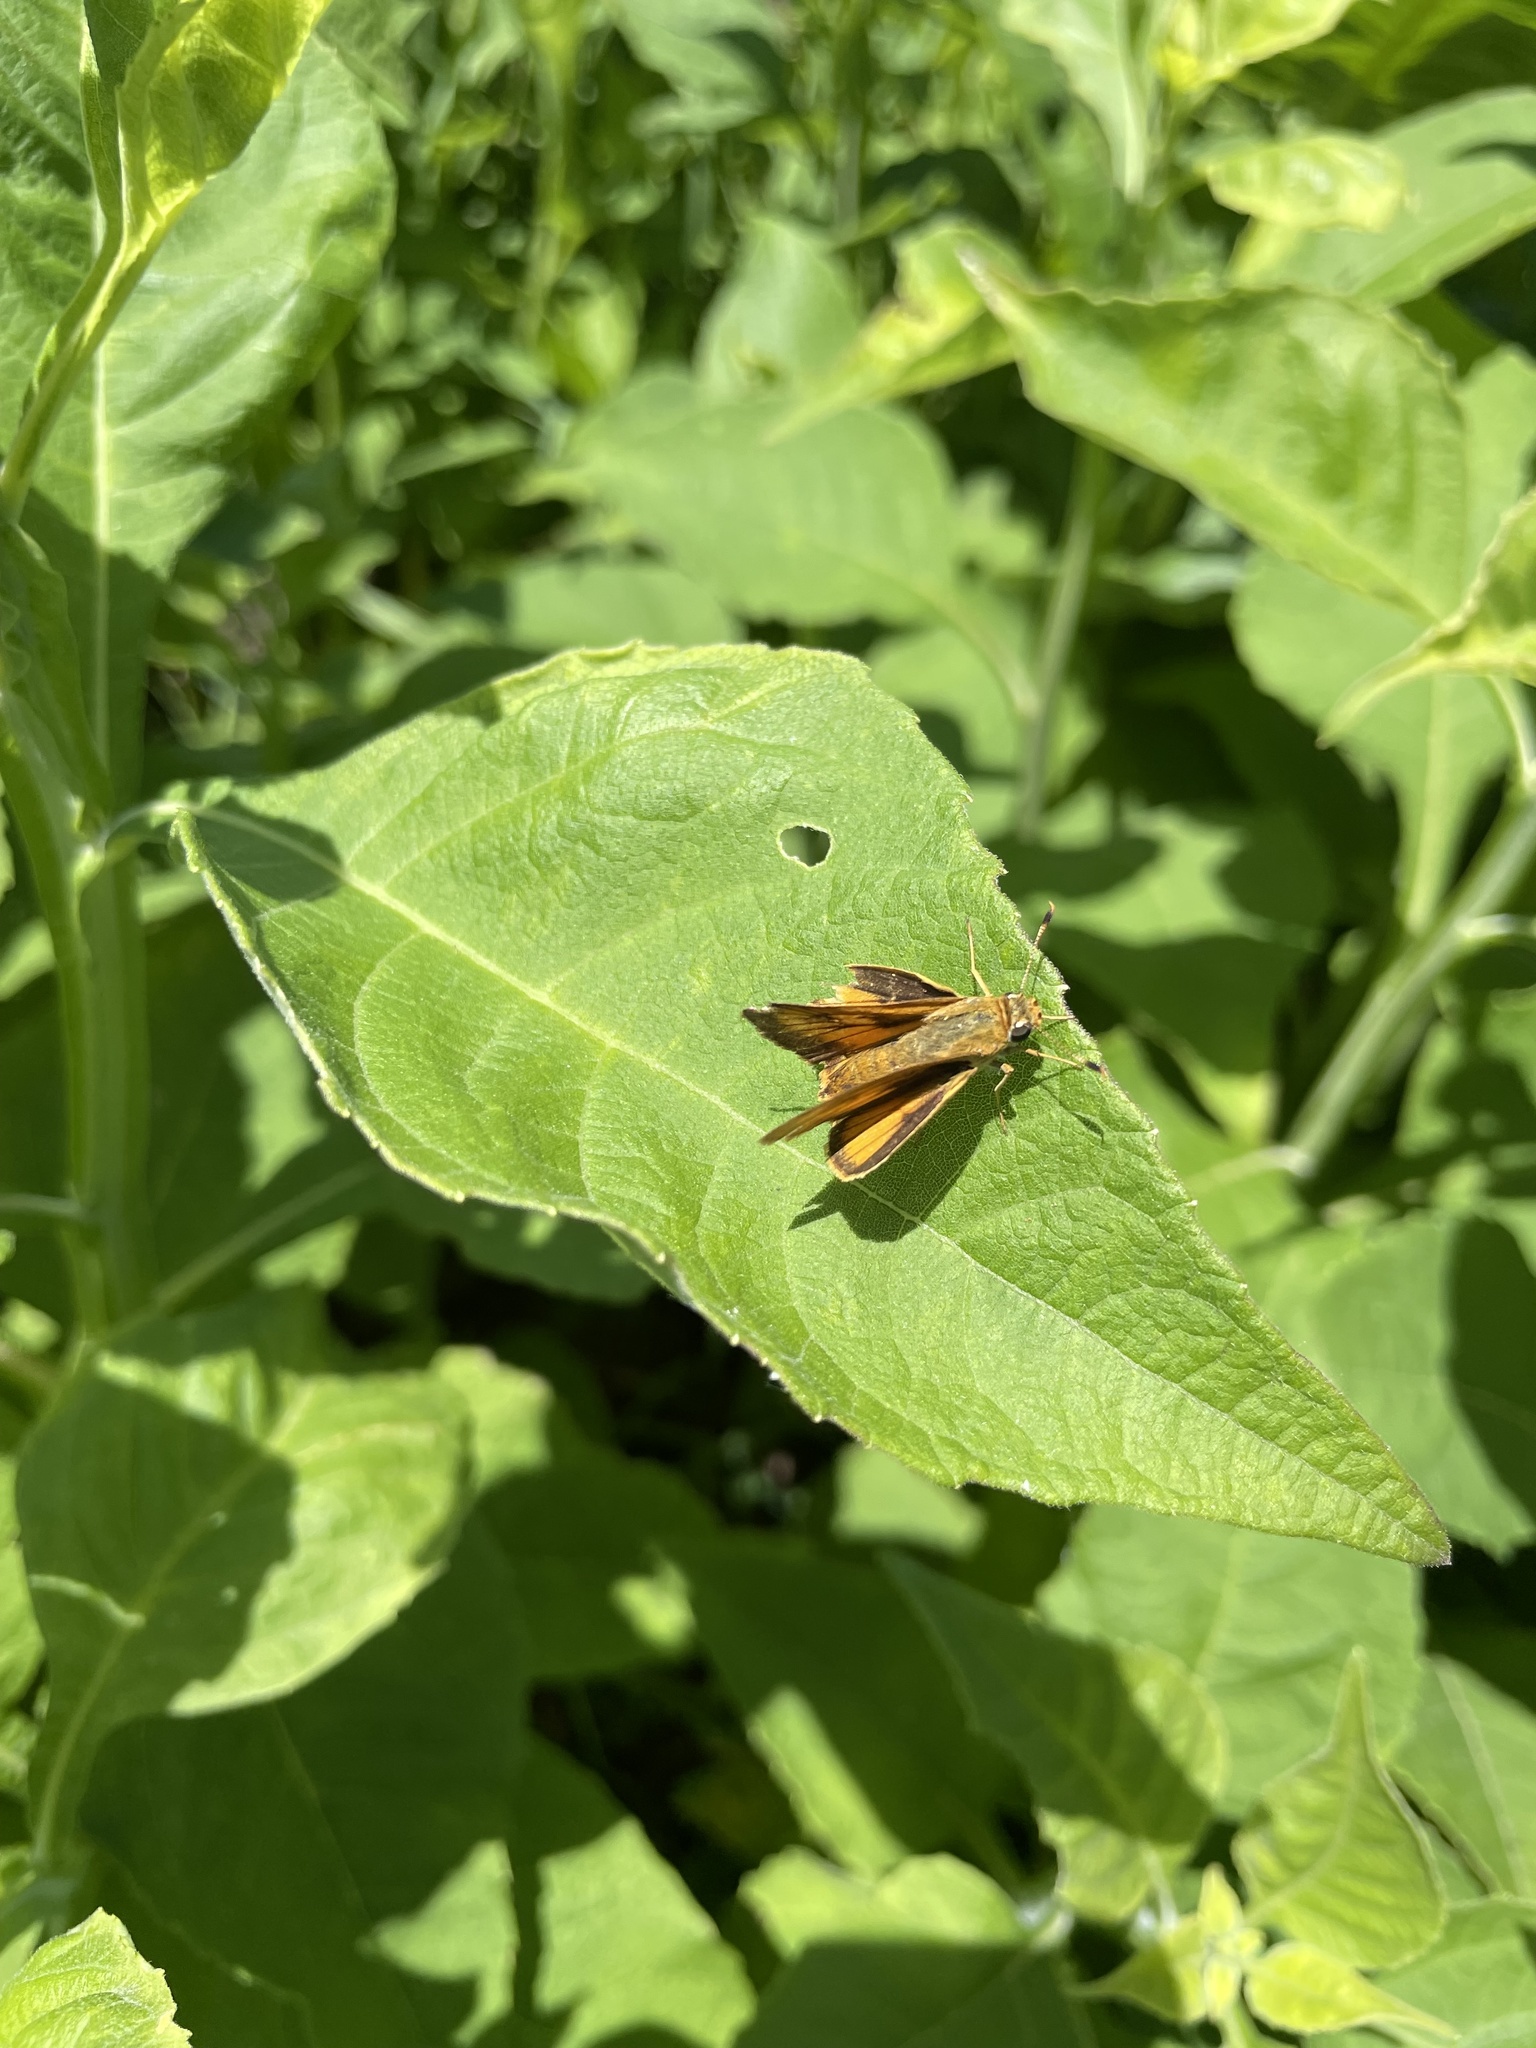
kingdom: Animalia
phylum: Arthropoda
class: Insecta
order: Lepidoptera
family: Hesperiidae
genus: Atrytone
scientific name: Atrytone delaware
